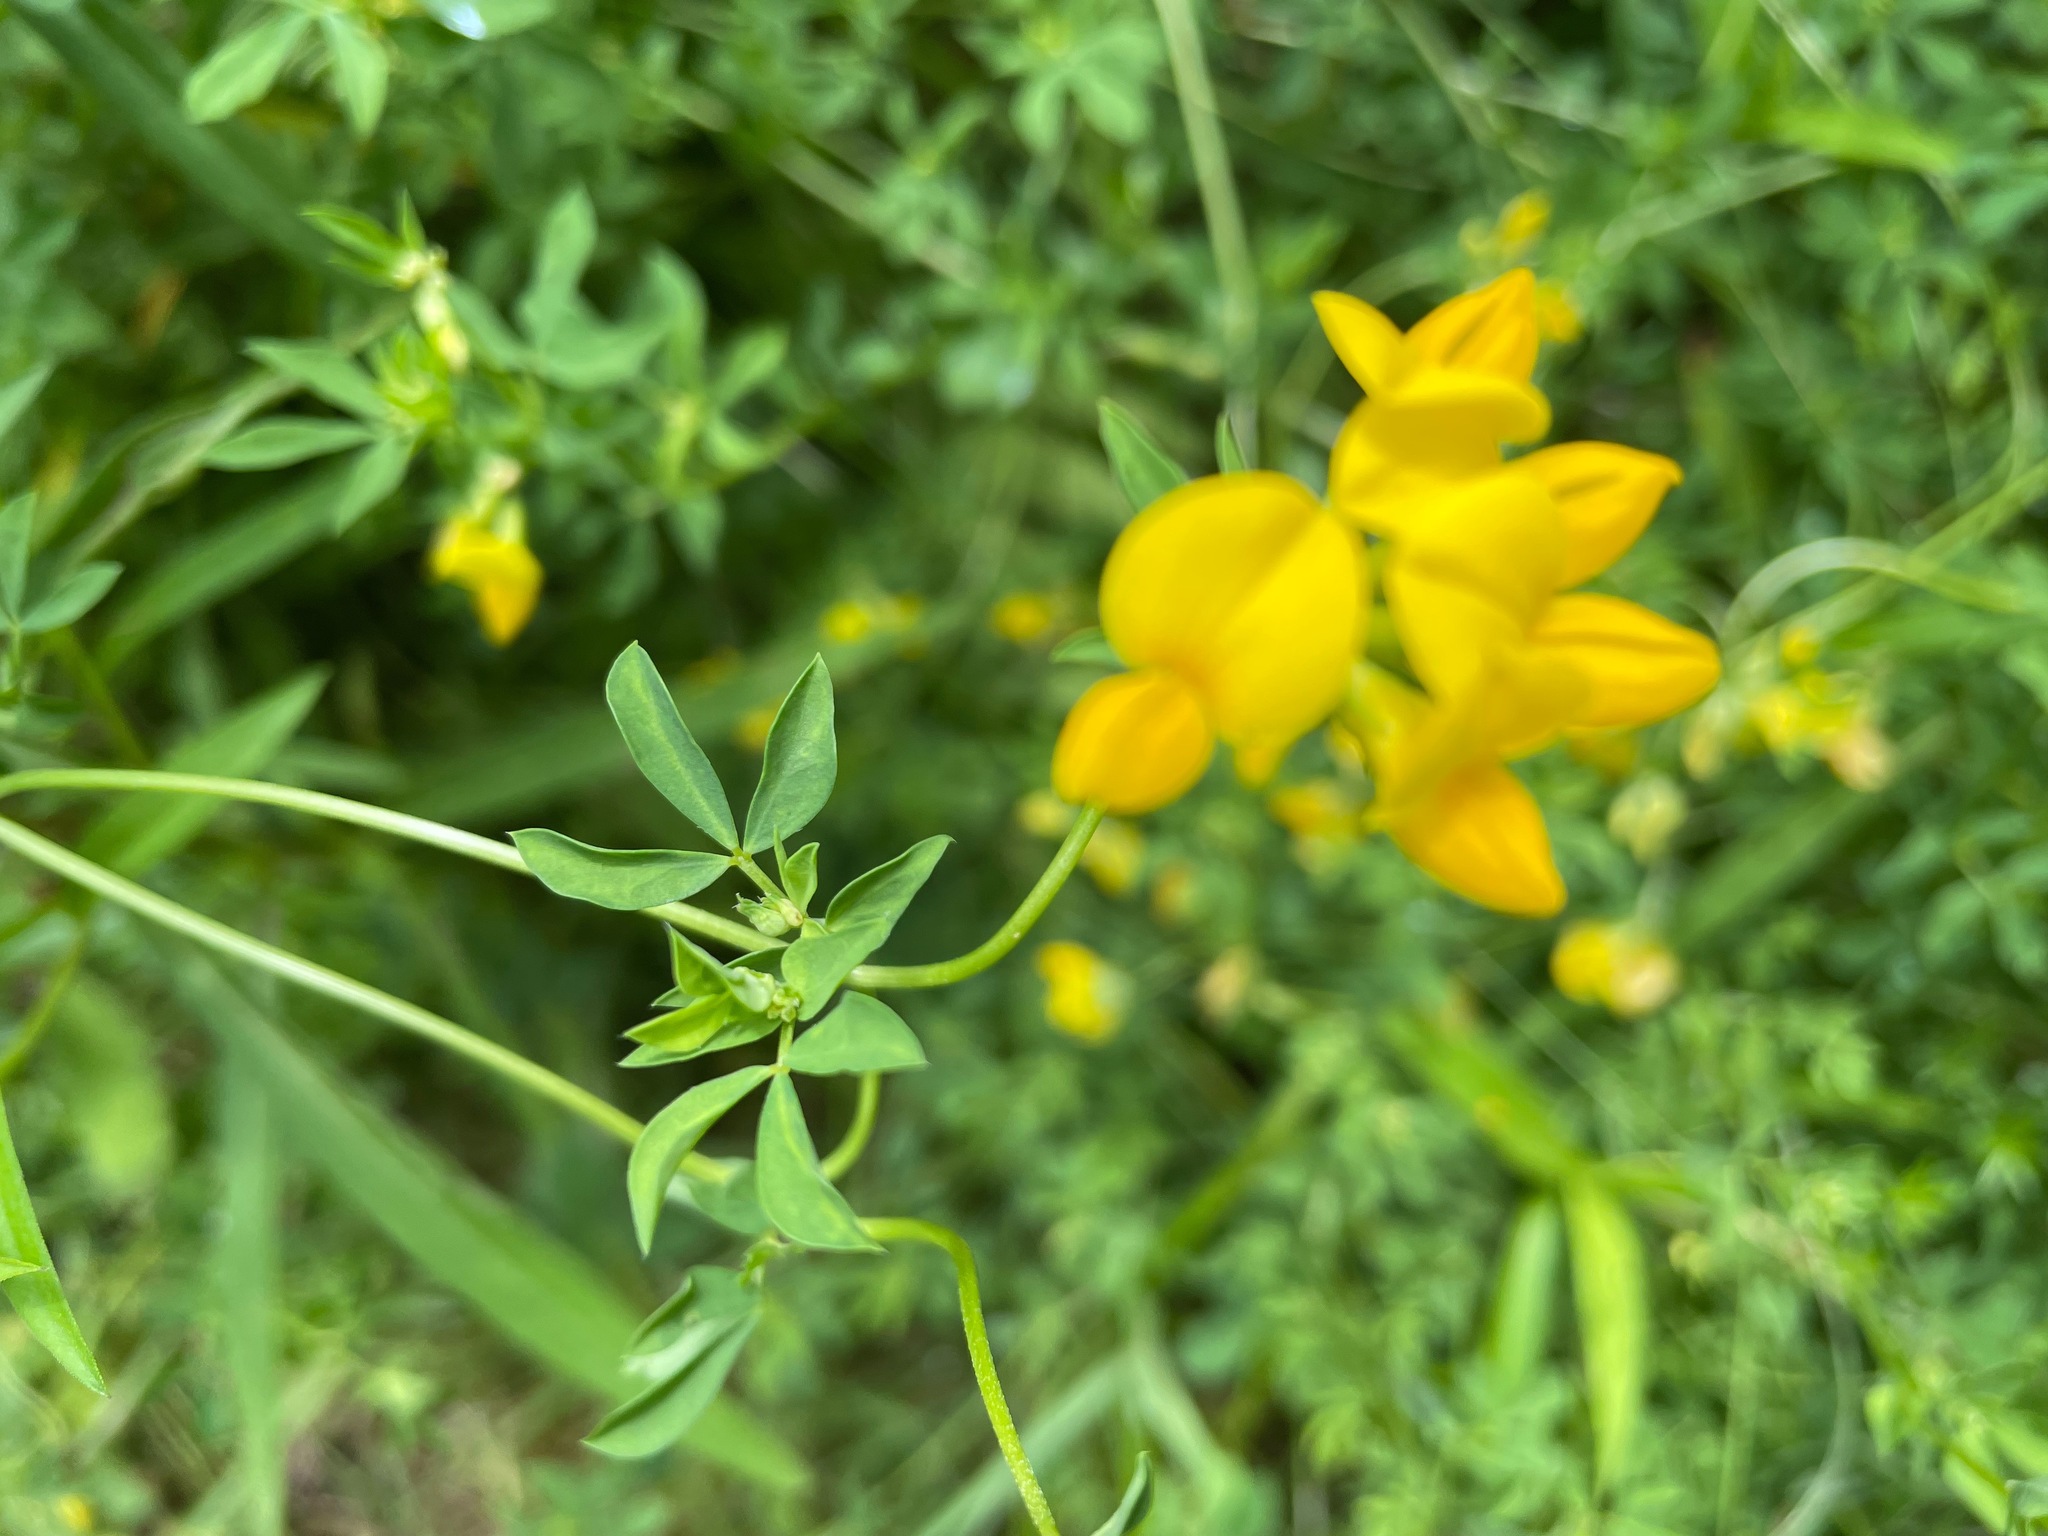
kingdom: Plantae
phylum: Tracheophyta
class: Magnoliopsida
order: Fabales
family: Fabaceae
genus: Lotus
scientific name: Lotus corniculatus
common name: Common bird's-foot-trefoil
